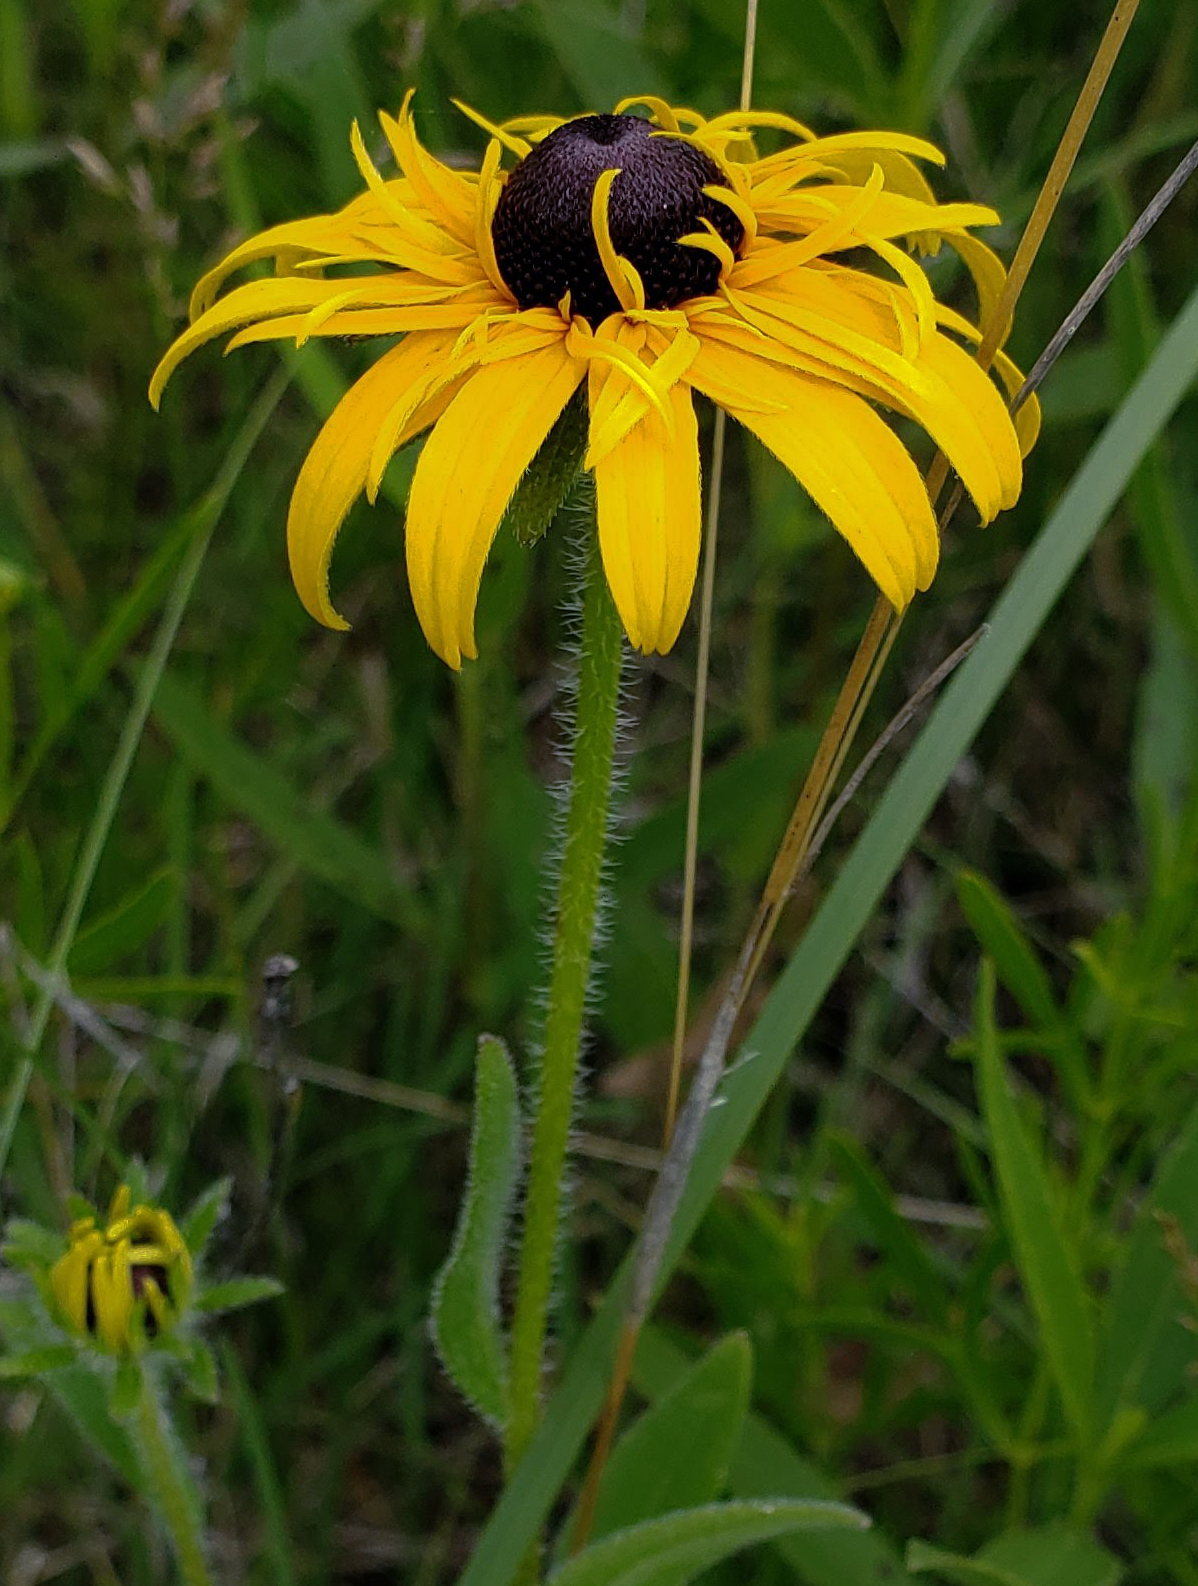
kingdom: Plantae
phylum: Tracheophyta
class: Magnoliopsida
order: Asterales
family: Asteraceae
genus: Rudbeckia
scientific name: Rudbeckia hirta
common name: Black-eyed-susan
